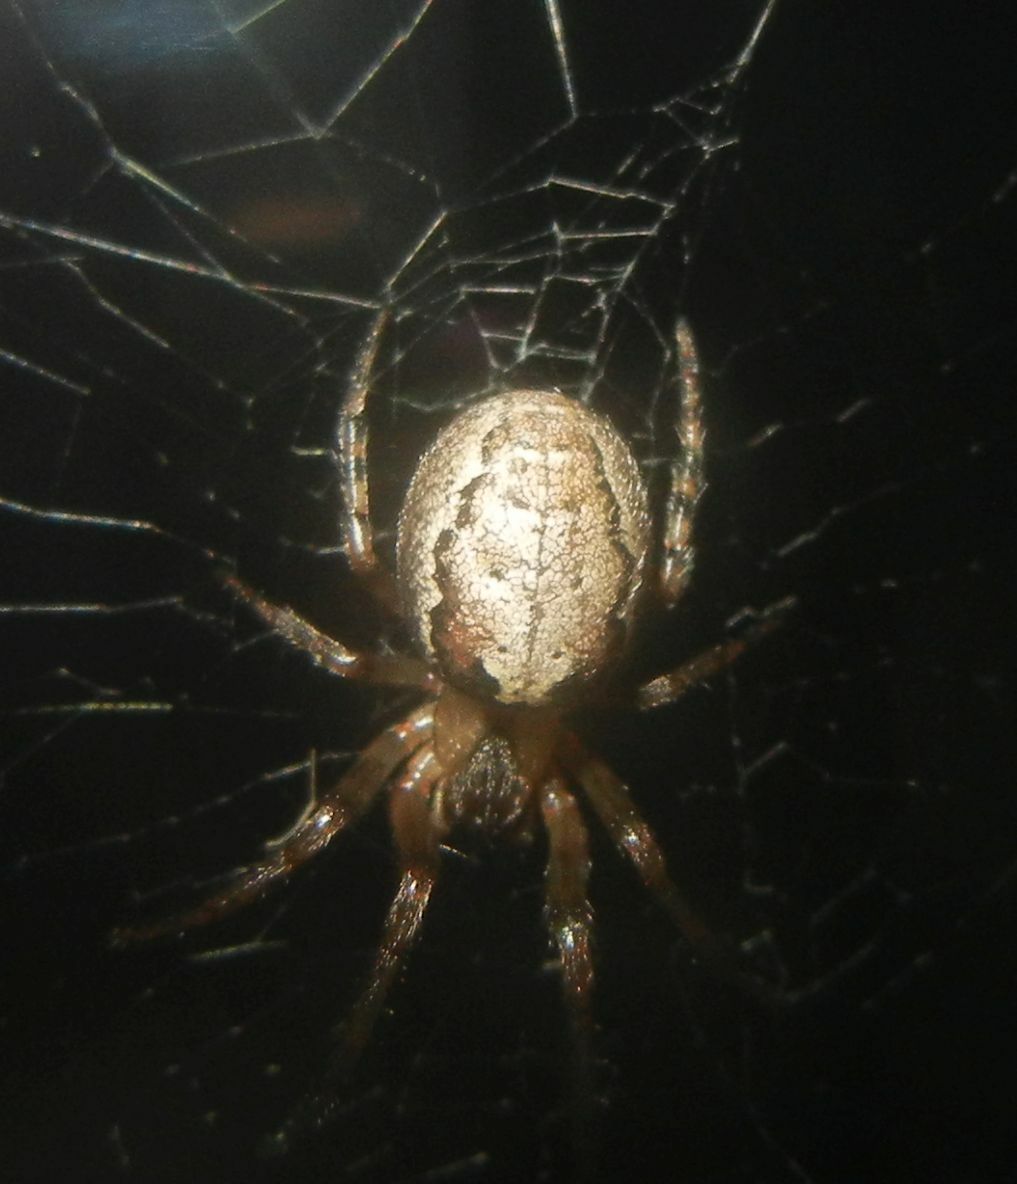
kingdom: Animalia
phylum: Arthropoda
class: Arachnida
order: Araneae
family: Araneidae
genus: Zygiella
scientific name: Zygiella x-notata
